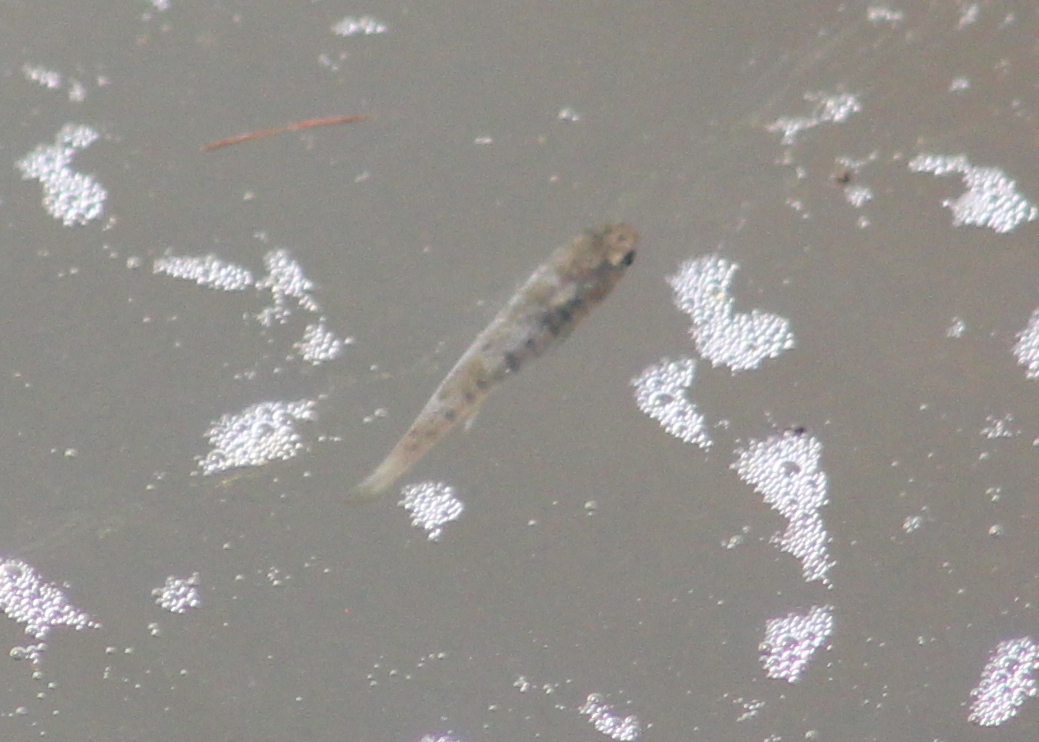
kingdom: Animalia
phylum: Chordata
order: Cyprinodontiformes
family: Fundulidae
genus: Fundulus
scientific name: Fundulus heteroclitus
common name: Mummichog
